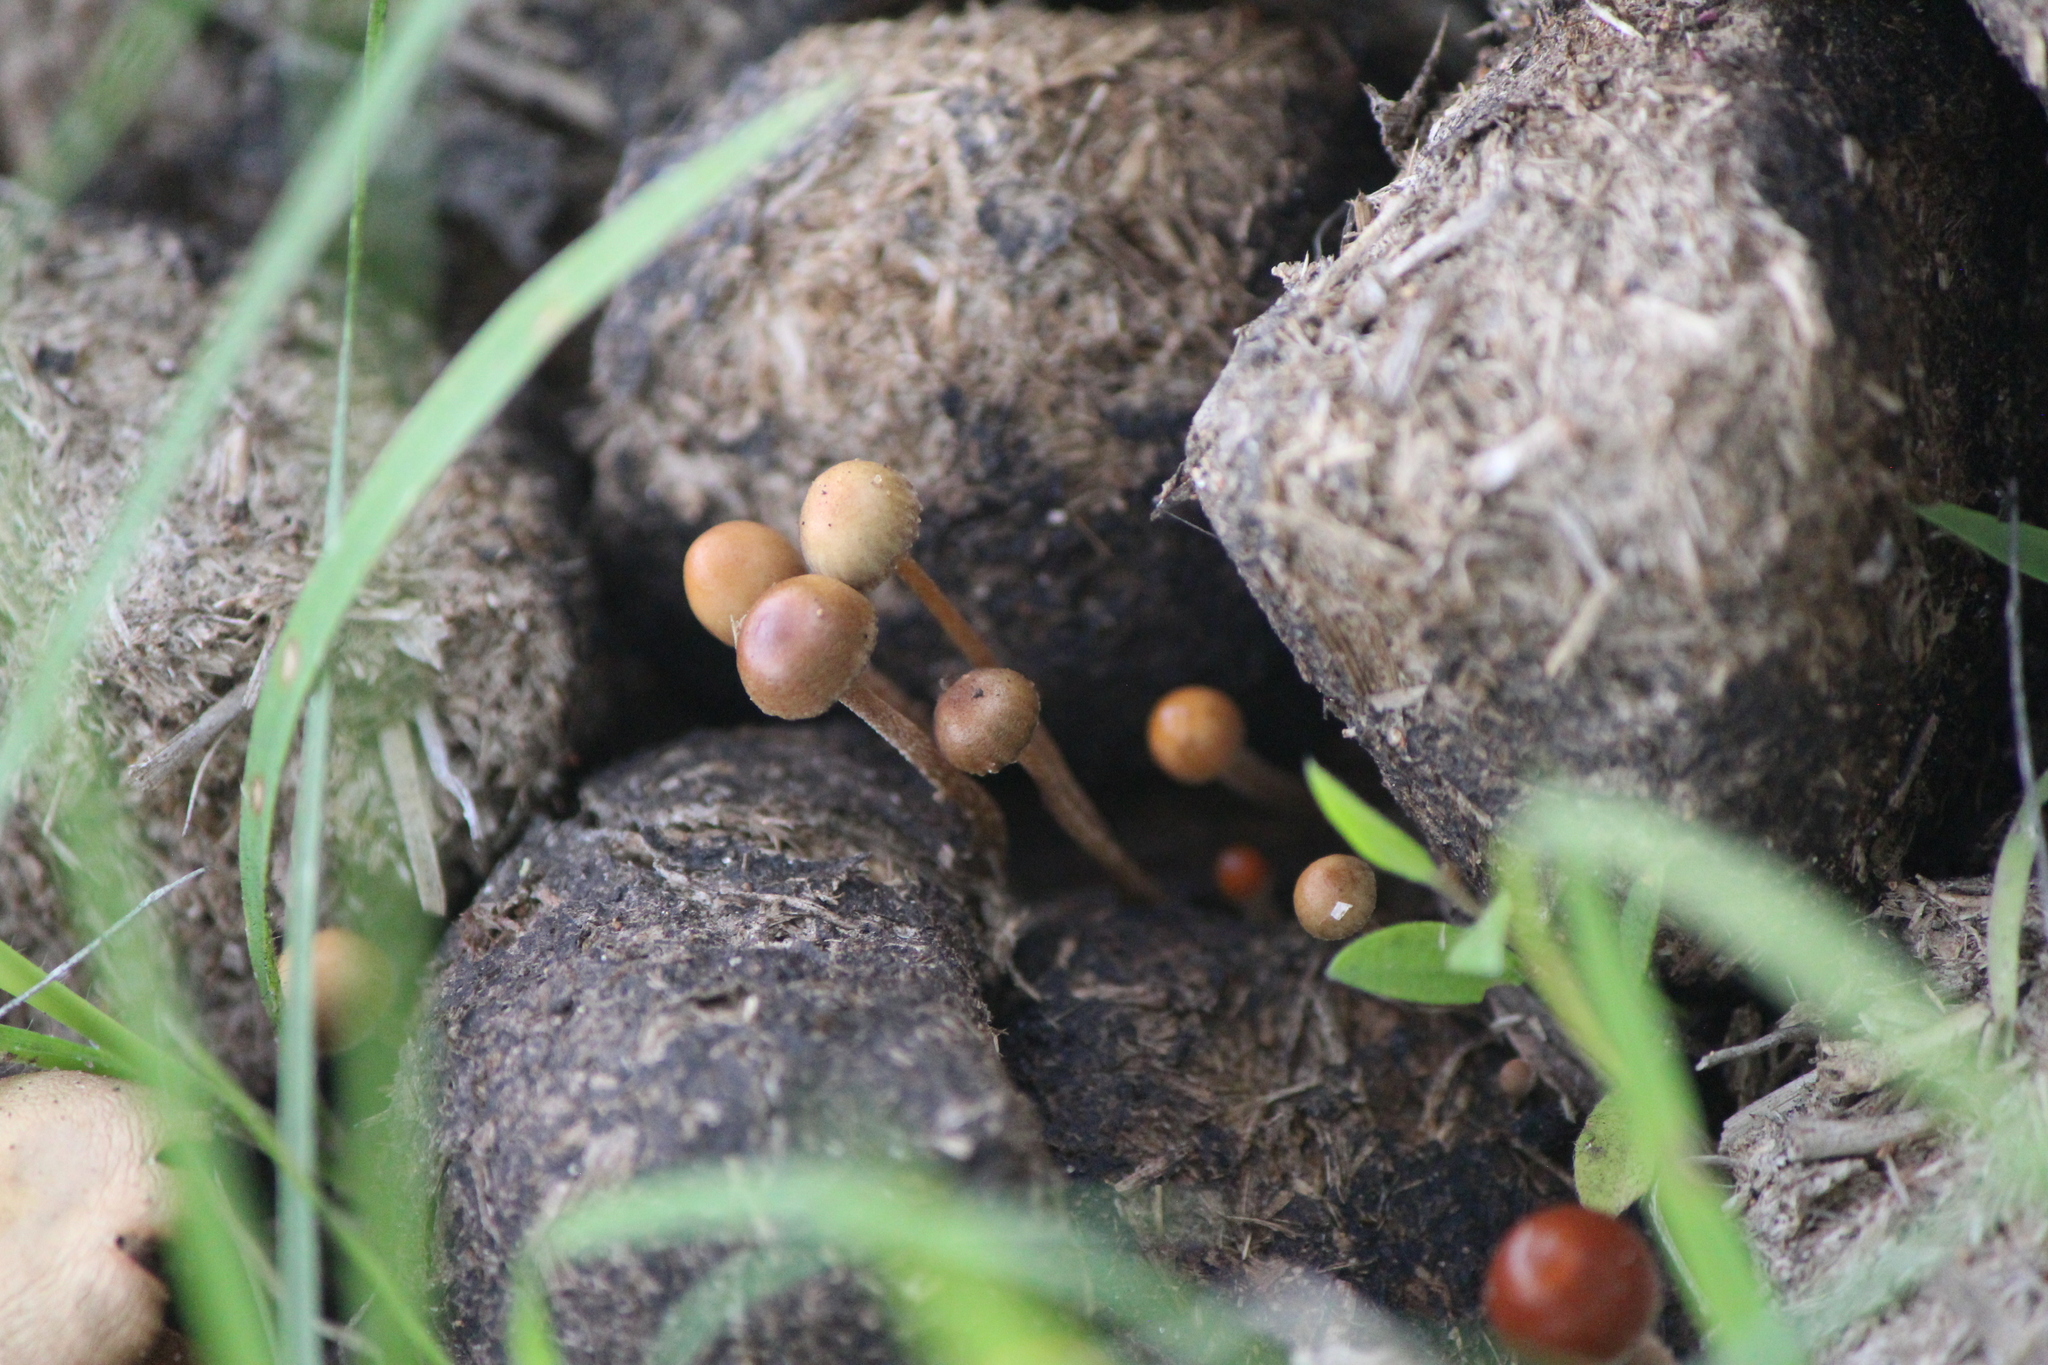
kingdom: Fungi
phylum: Basidiomycota
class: Agaricomycetes
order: Agaricales
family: Strophariaceae
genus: Deconica
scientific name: Deconica coprophila
